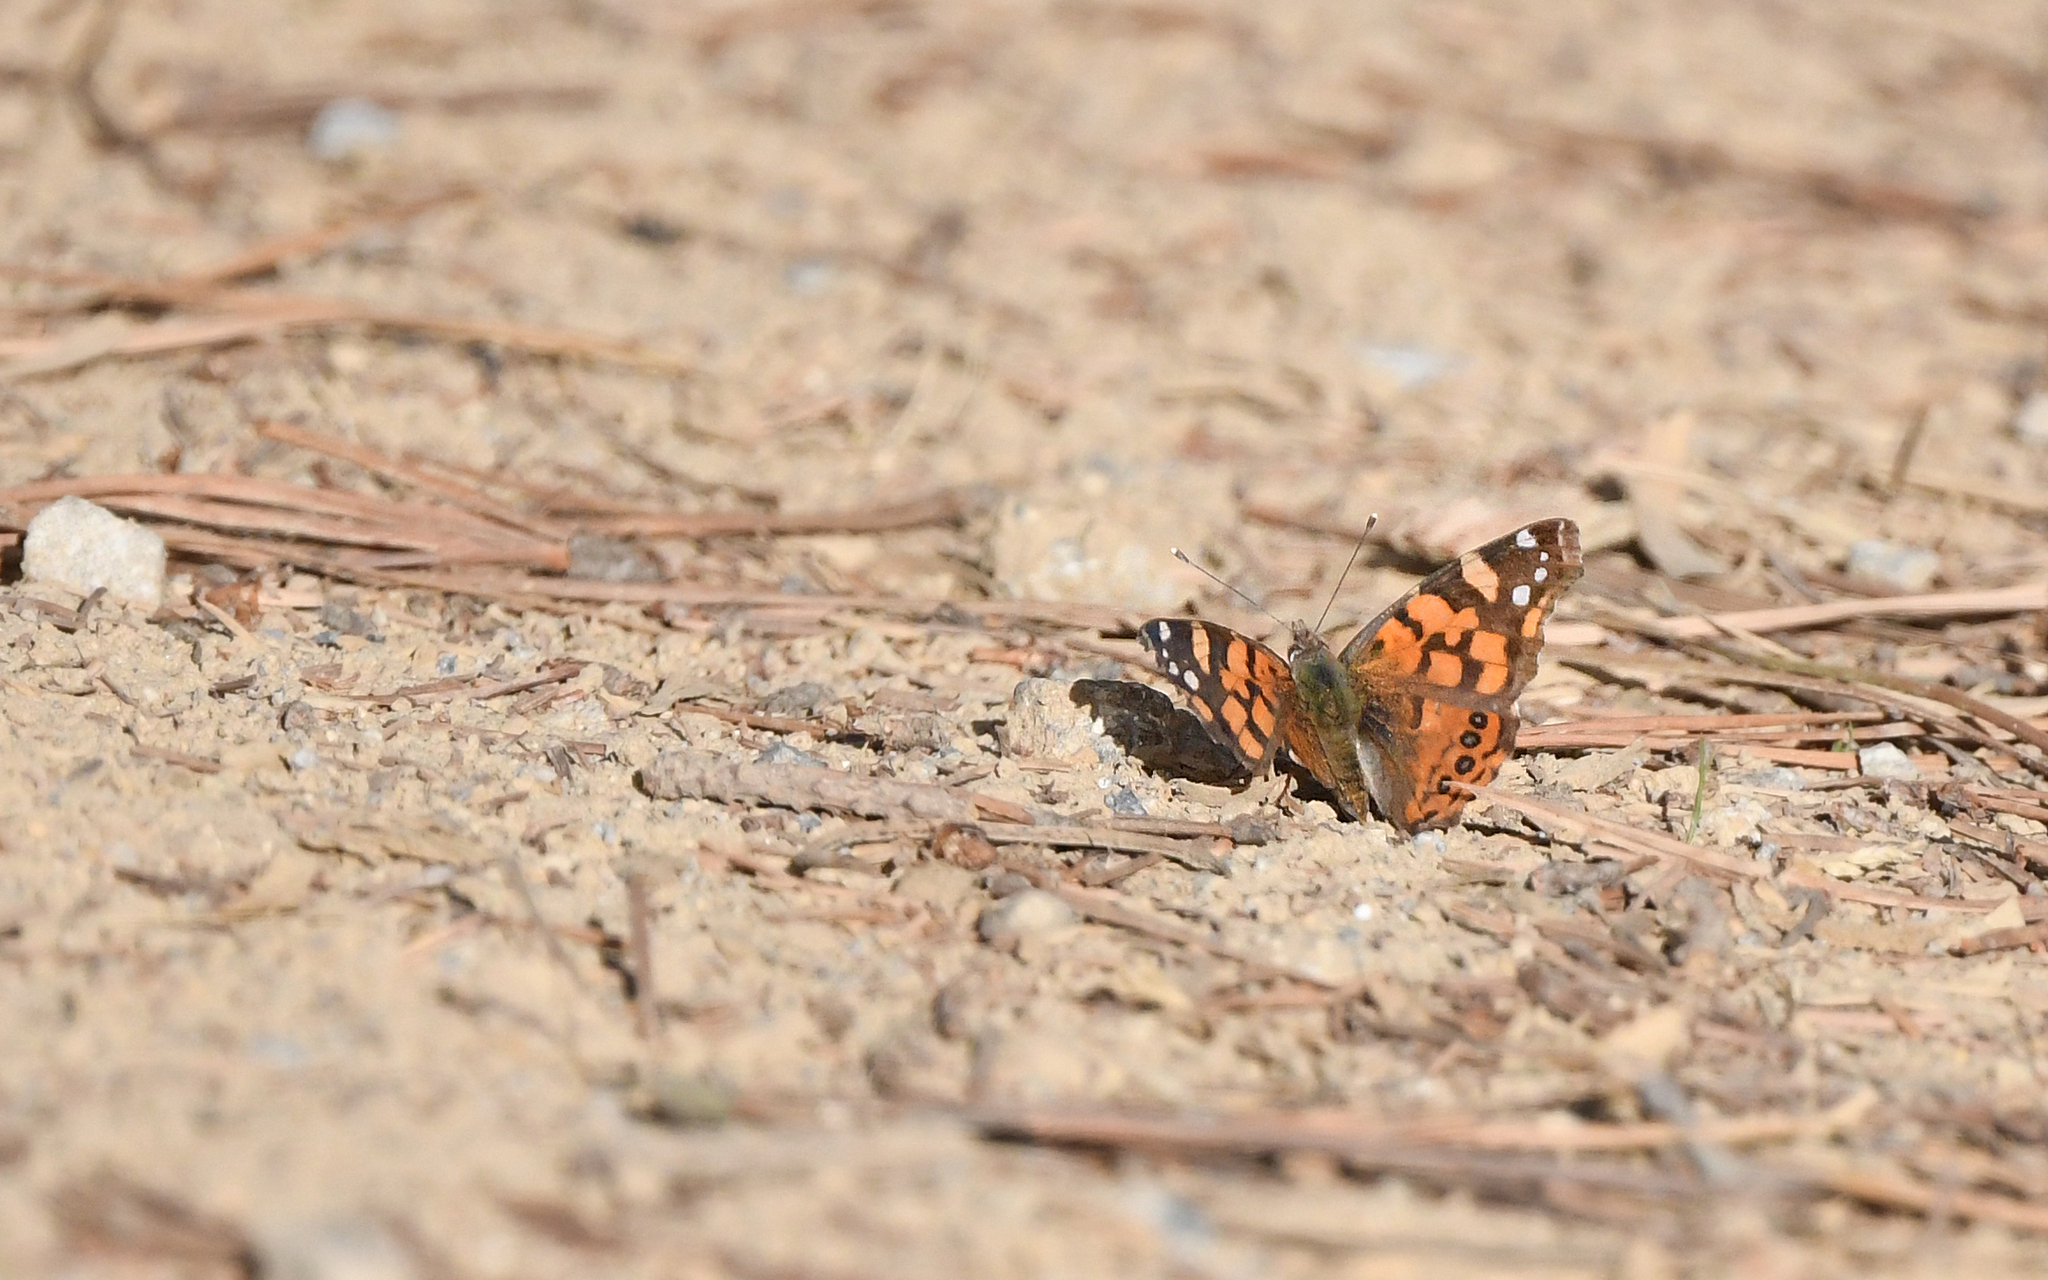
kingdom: Animalia
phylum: Arthropoda
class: Insecta
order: Lepidoptera
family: Nymphalidae
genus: Vanessa
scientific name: Vanessa carye
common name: Subtropical lady
